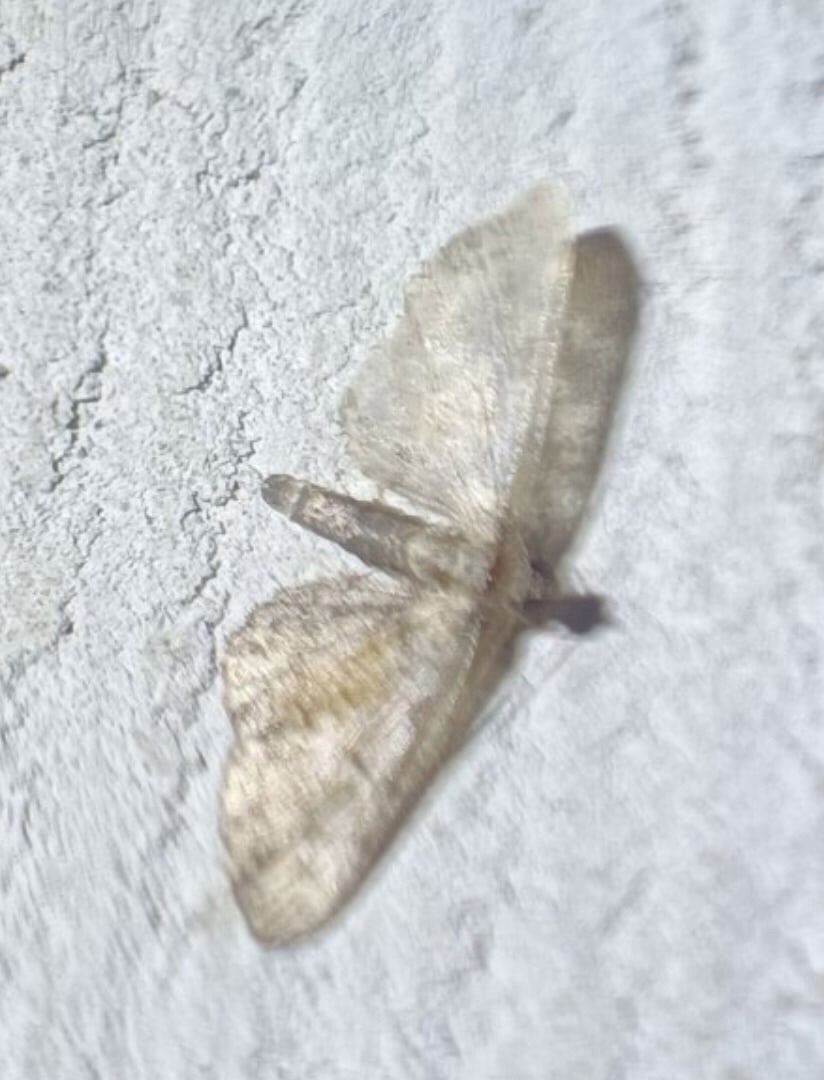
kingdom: Animalia
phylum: Arthropoda
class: Insecta
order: Lepidoptera
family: Geometridae
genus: Eupithecia
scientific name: Eupithecia icterata
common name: Tawny speckled pug
